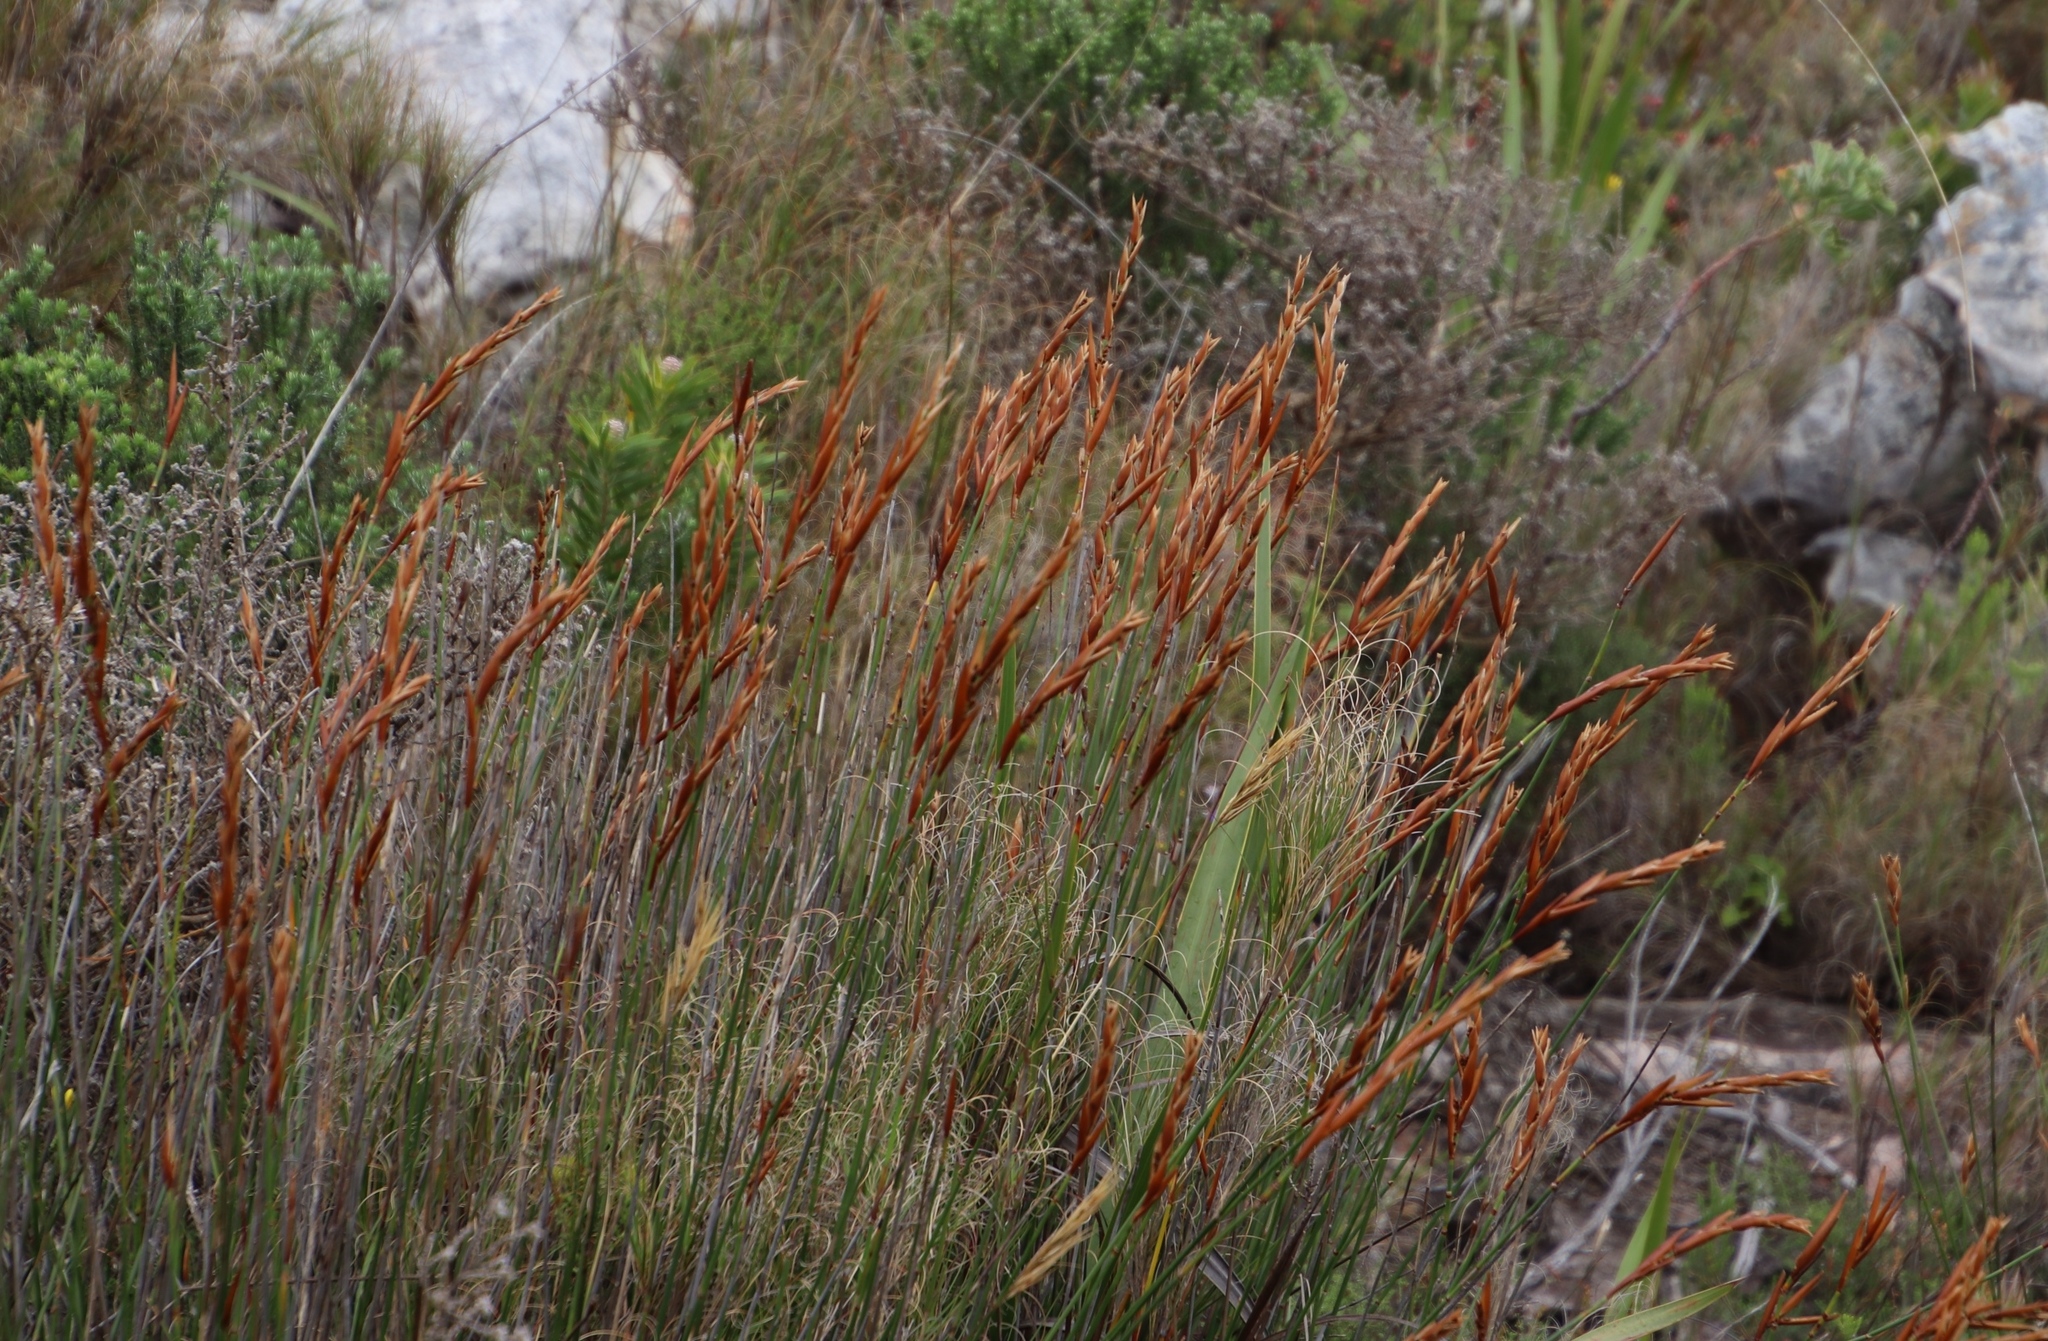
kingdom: Plantae
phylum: Tracheophyta
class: Liliopsida
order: Poales
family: Restionaceae
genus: Elegia
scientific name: Elegia racemosa
